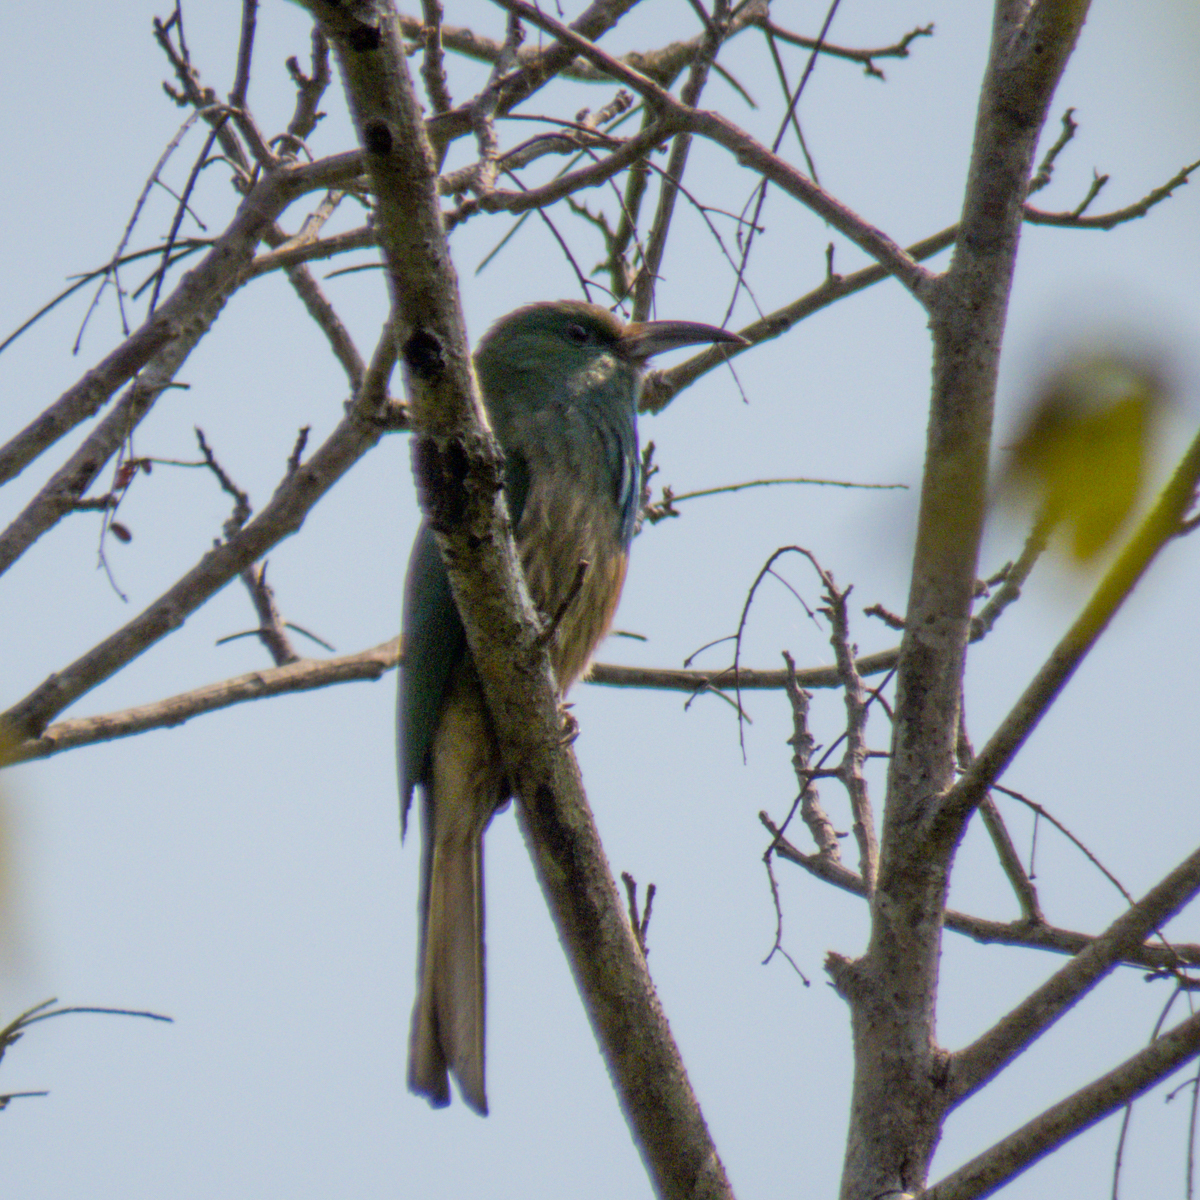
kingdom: Animalia
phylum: Chordata
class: Aves
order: Coraciiformes
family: Meropidae
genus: Nyctyornis
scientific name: Nyctyornis athertoni
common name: Blue-bearded bee-eater
